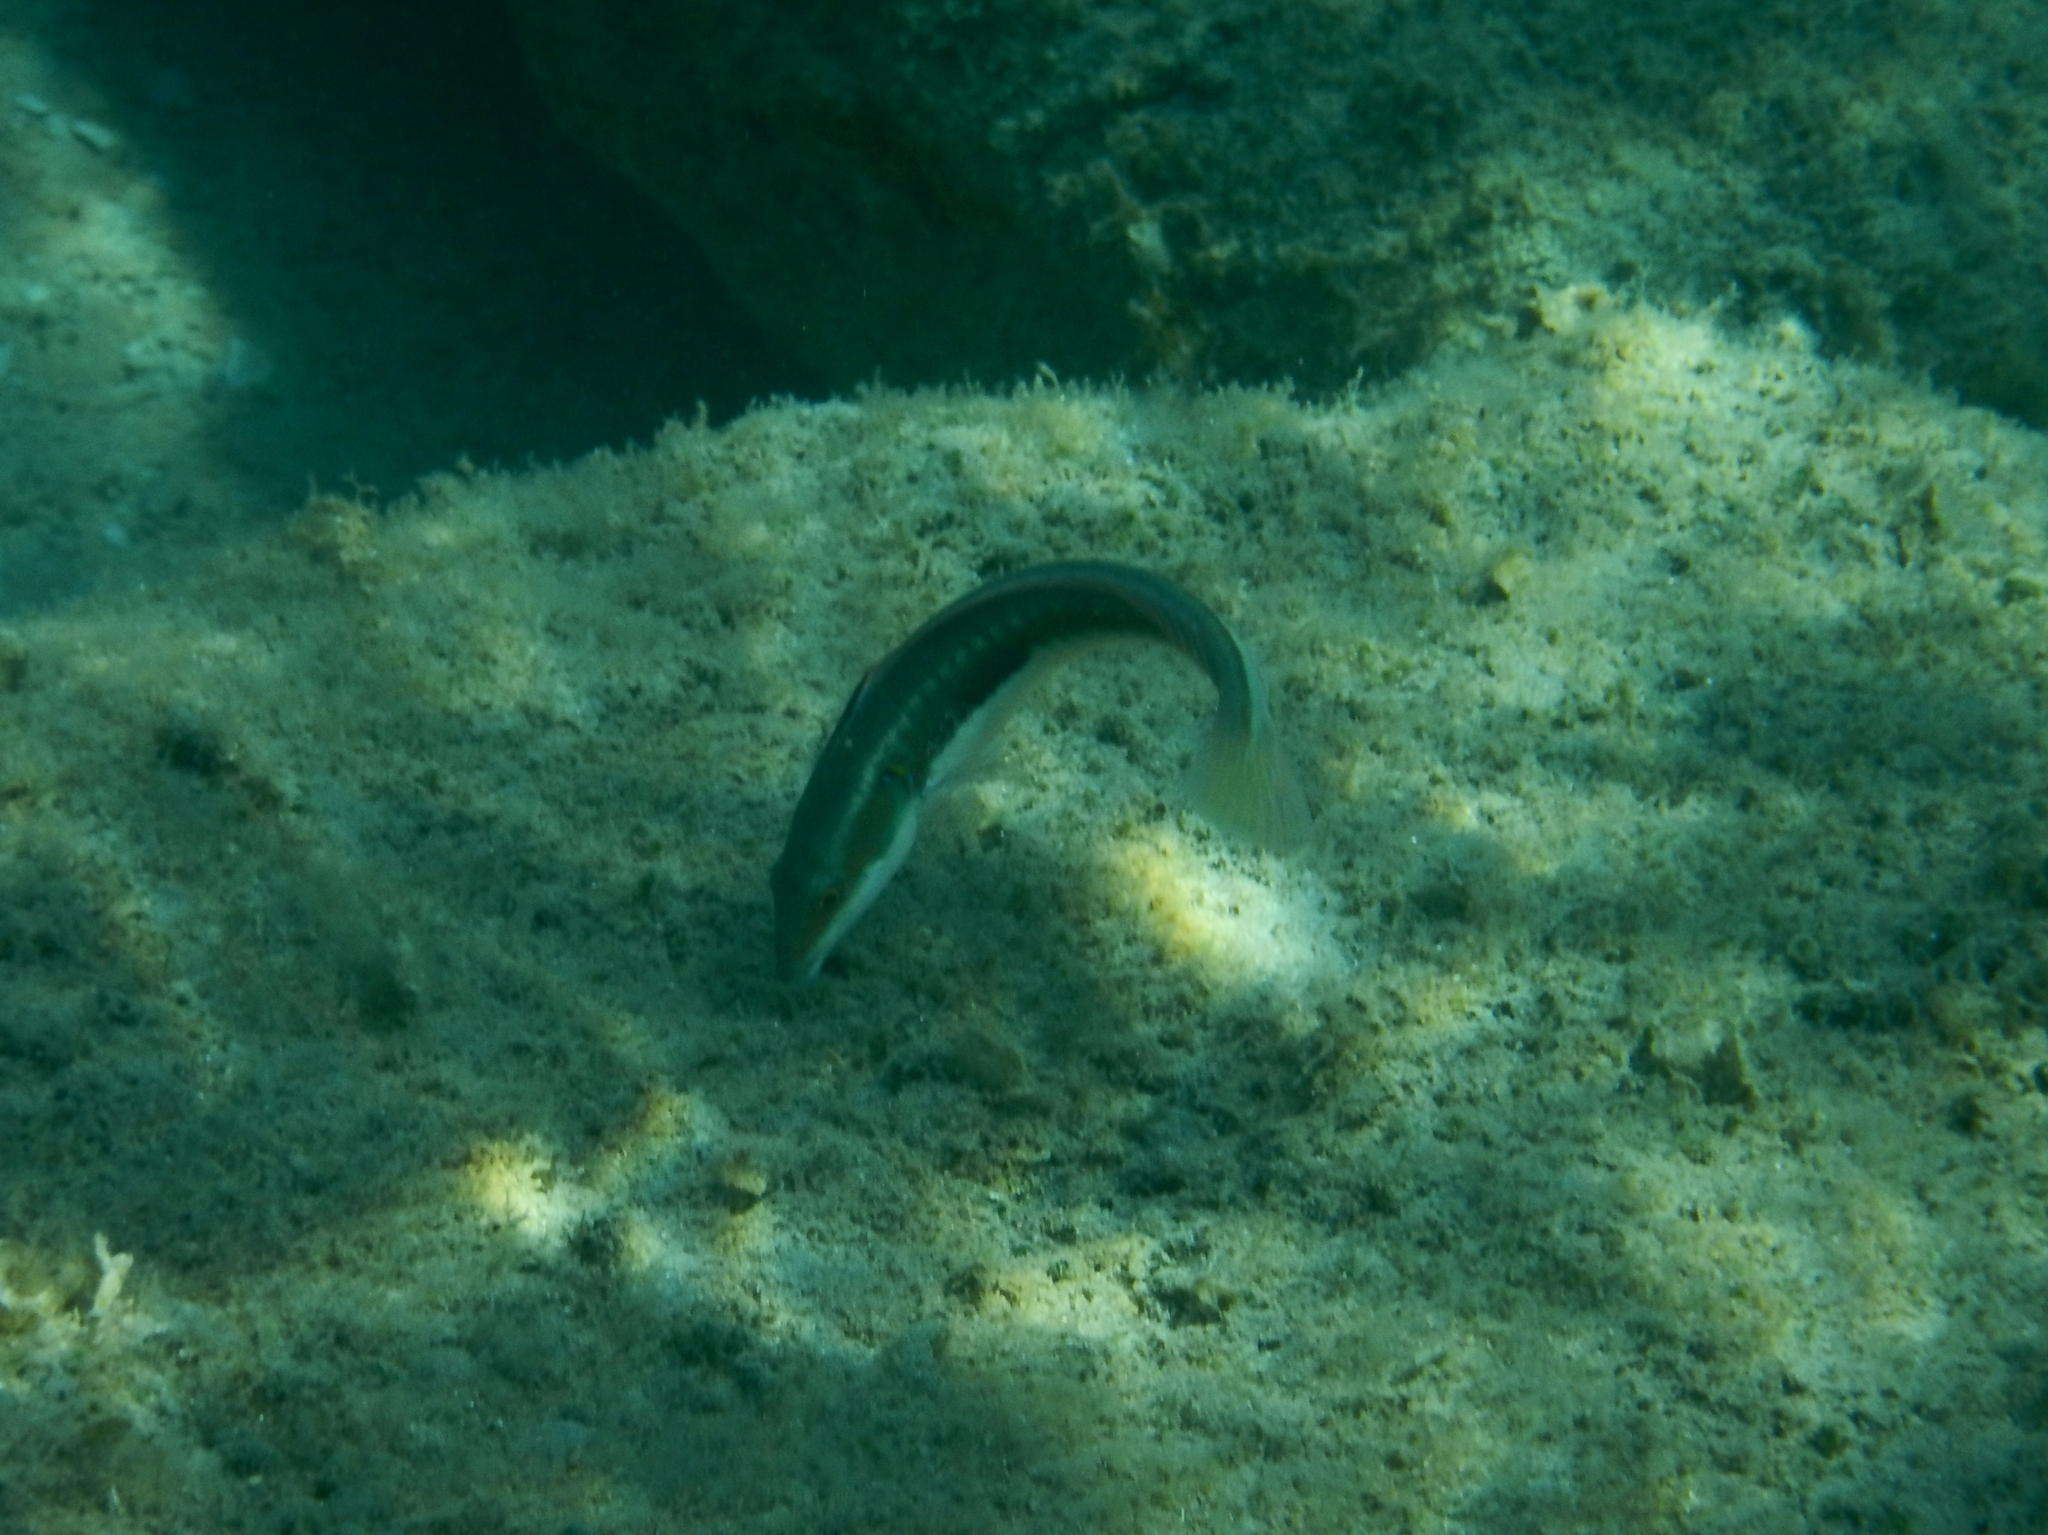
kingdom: Animalia
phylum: Chordata
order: Perciformes
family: Labridae
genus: Coris
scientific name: Coris julis
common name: Rainbow wrasse
